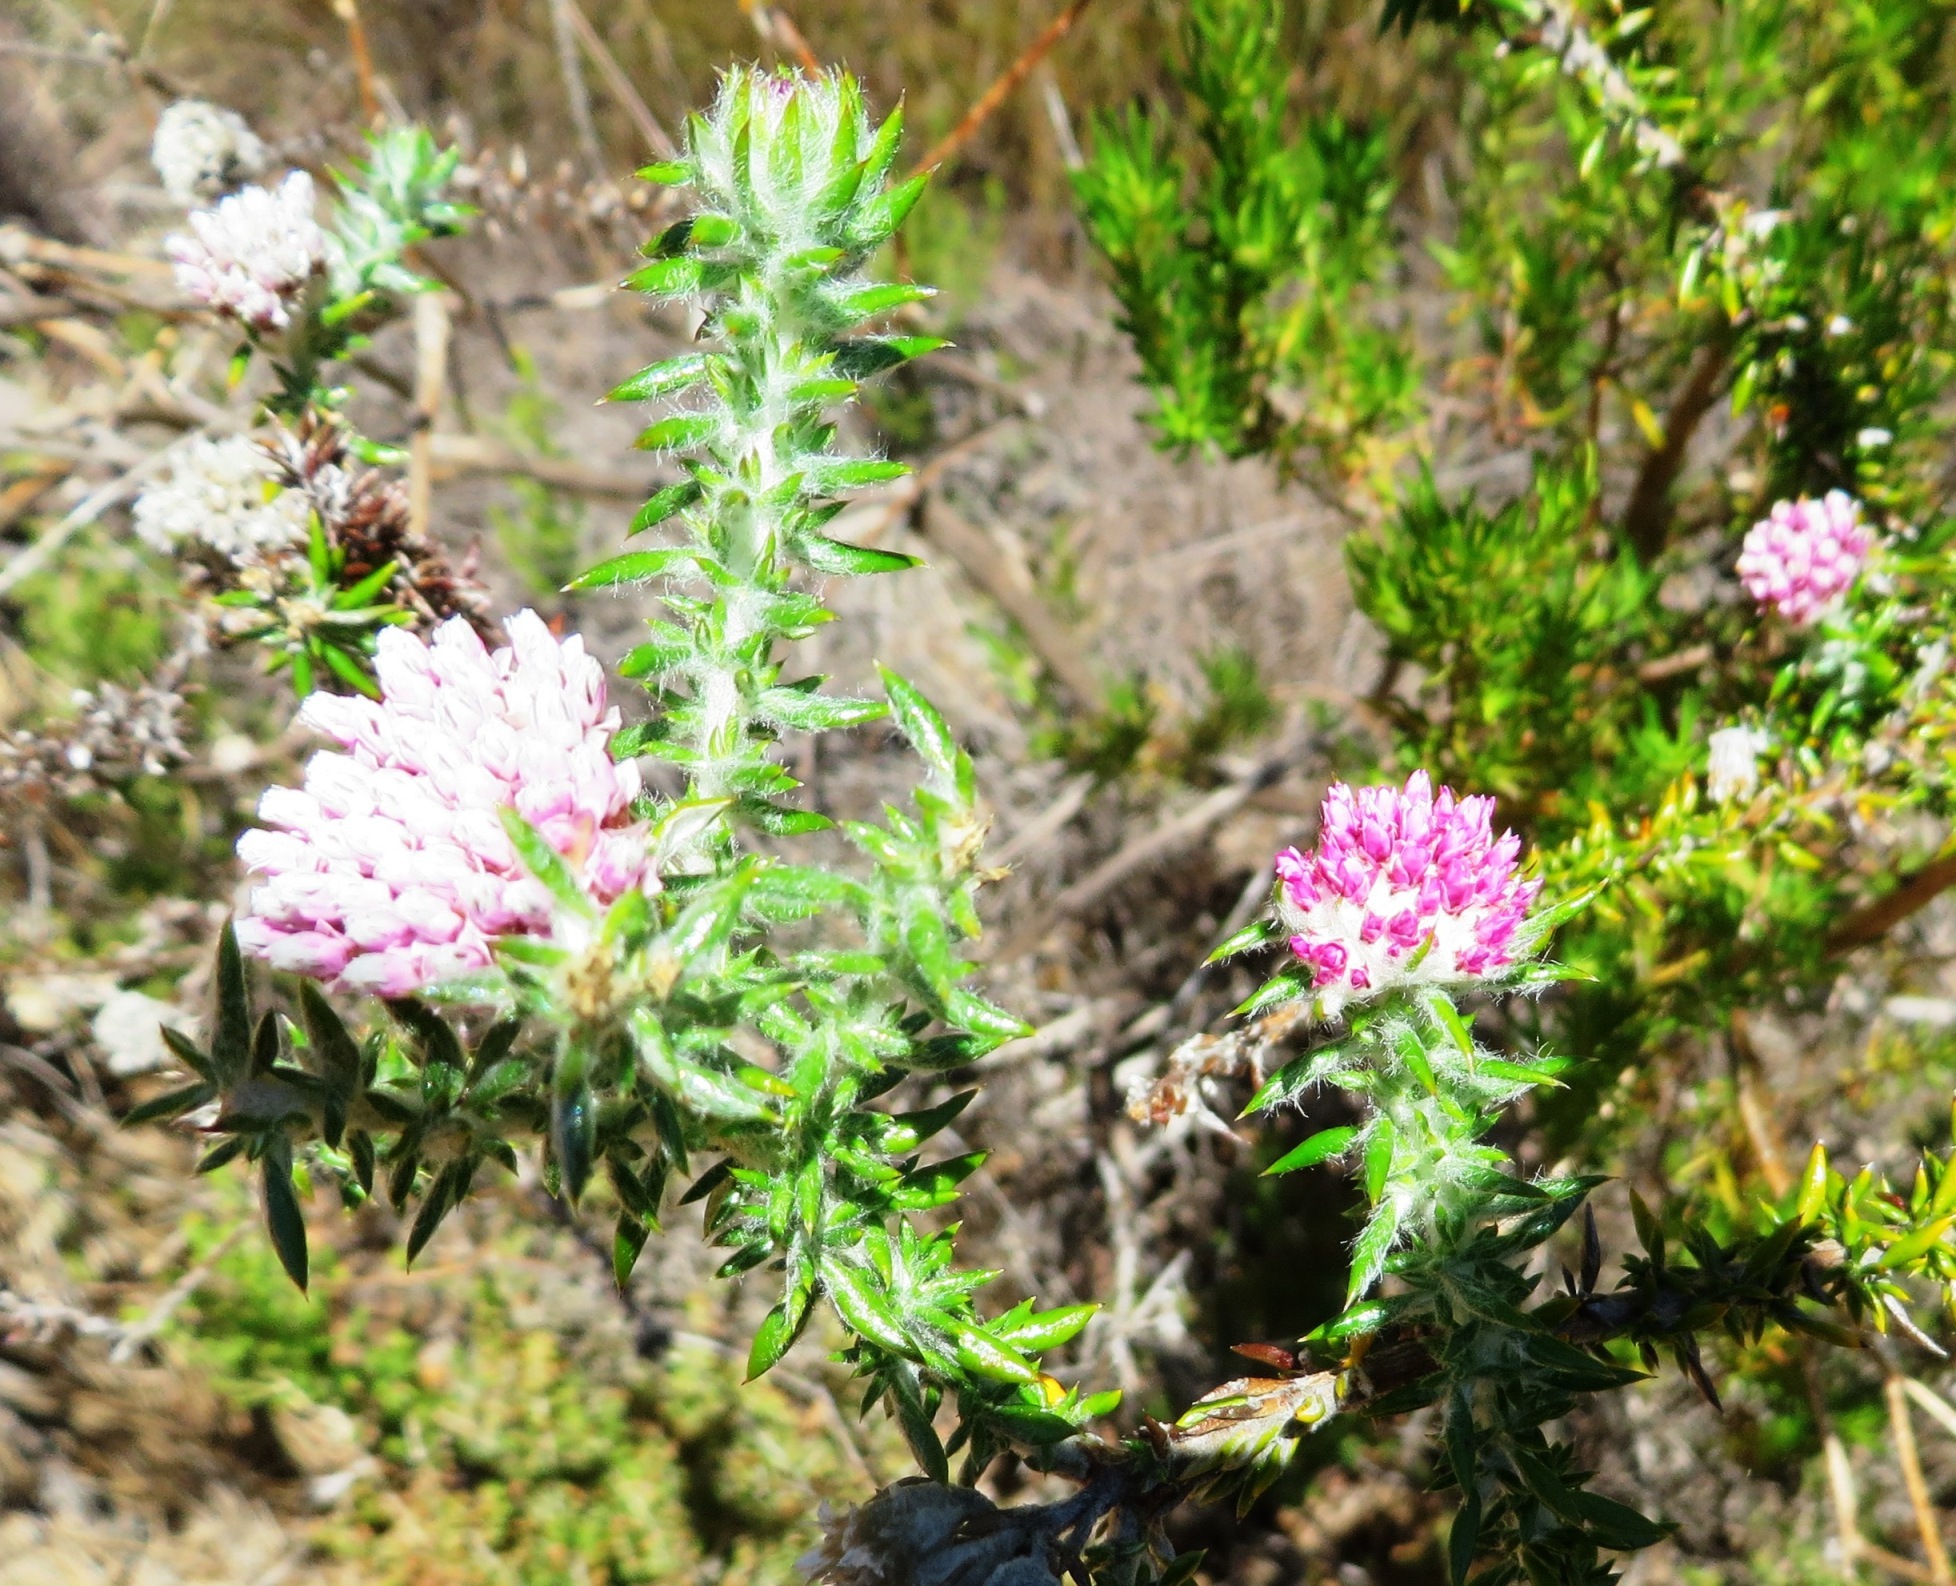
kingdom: Plantae
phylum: Tracheophyta
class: Magnoliopsida
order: Asterales
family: Asteraceae
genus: Metalasia
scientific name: Metalasia erubescens
